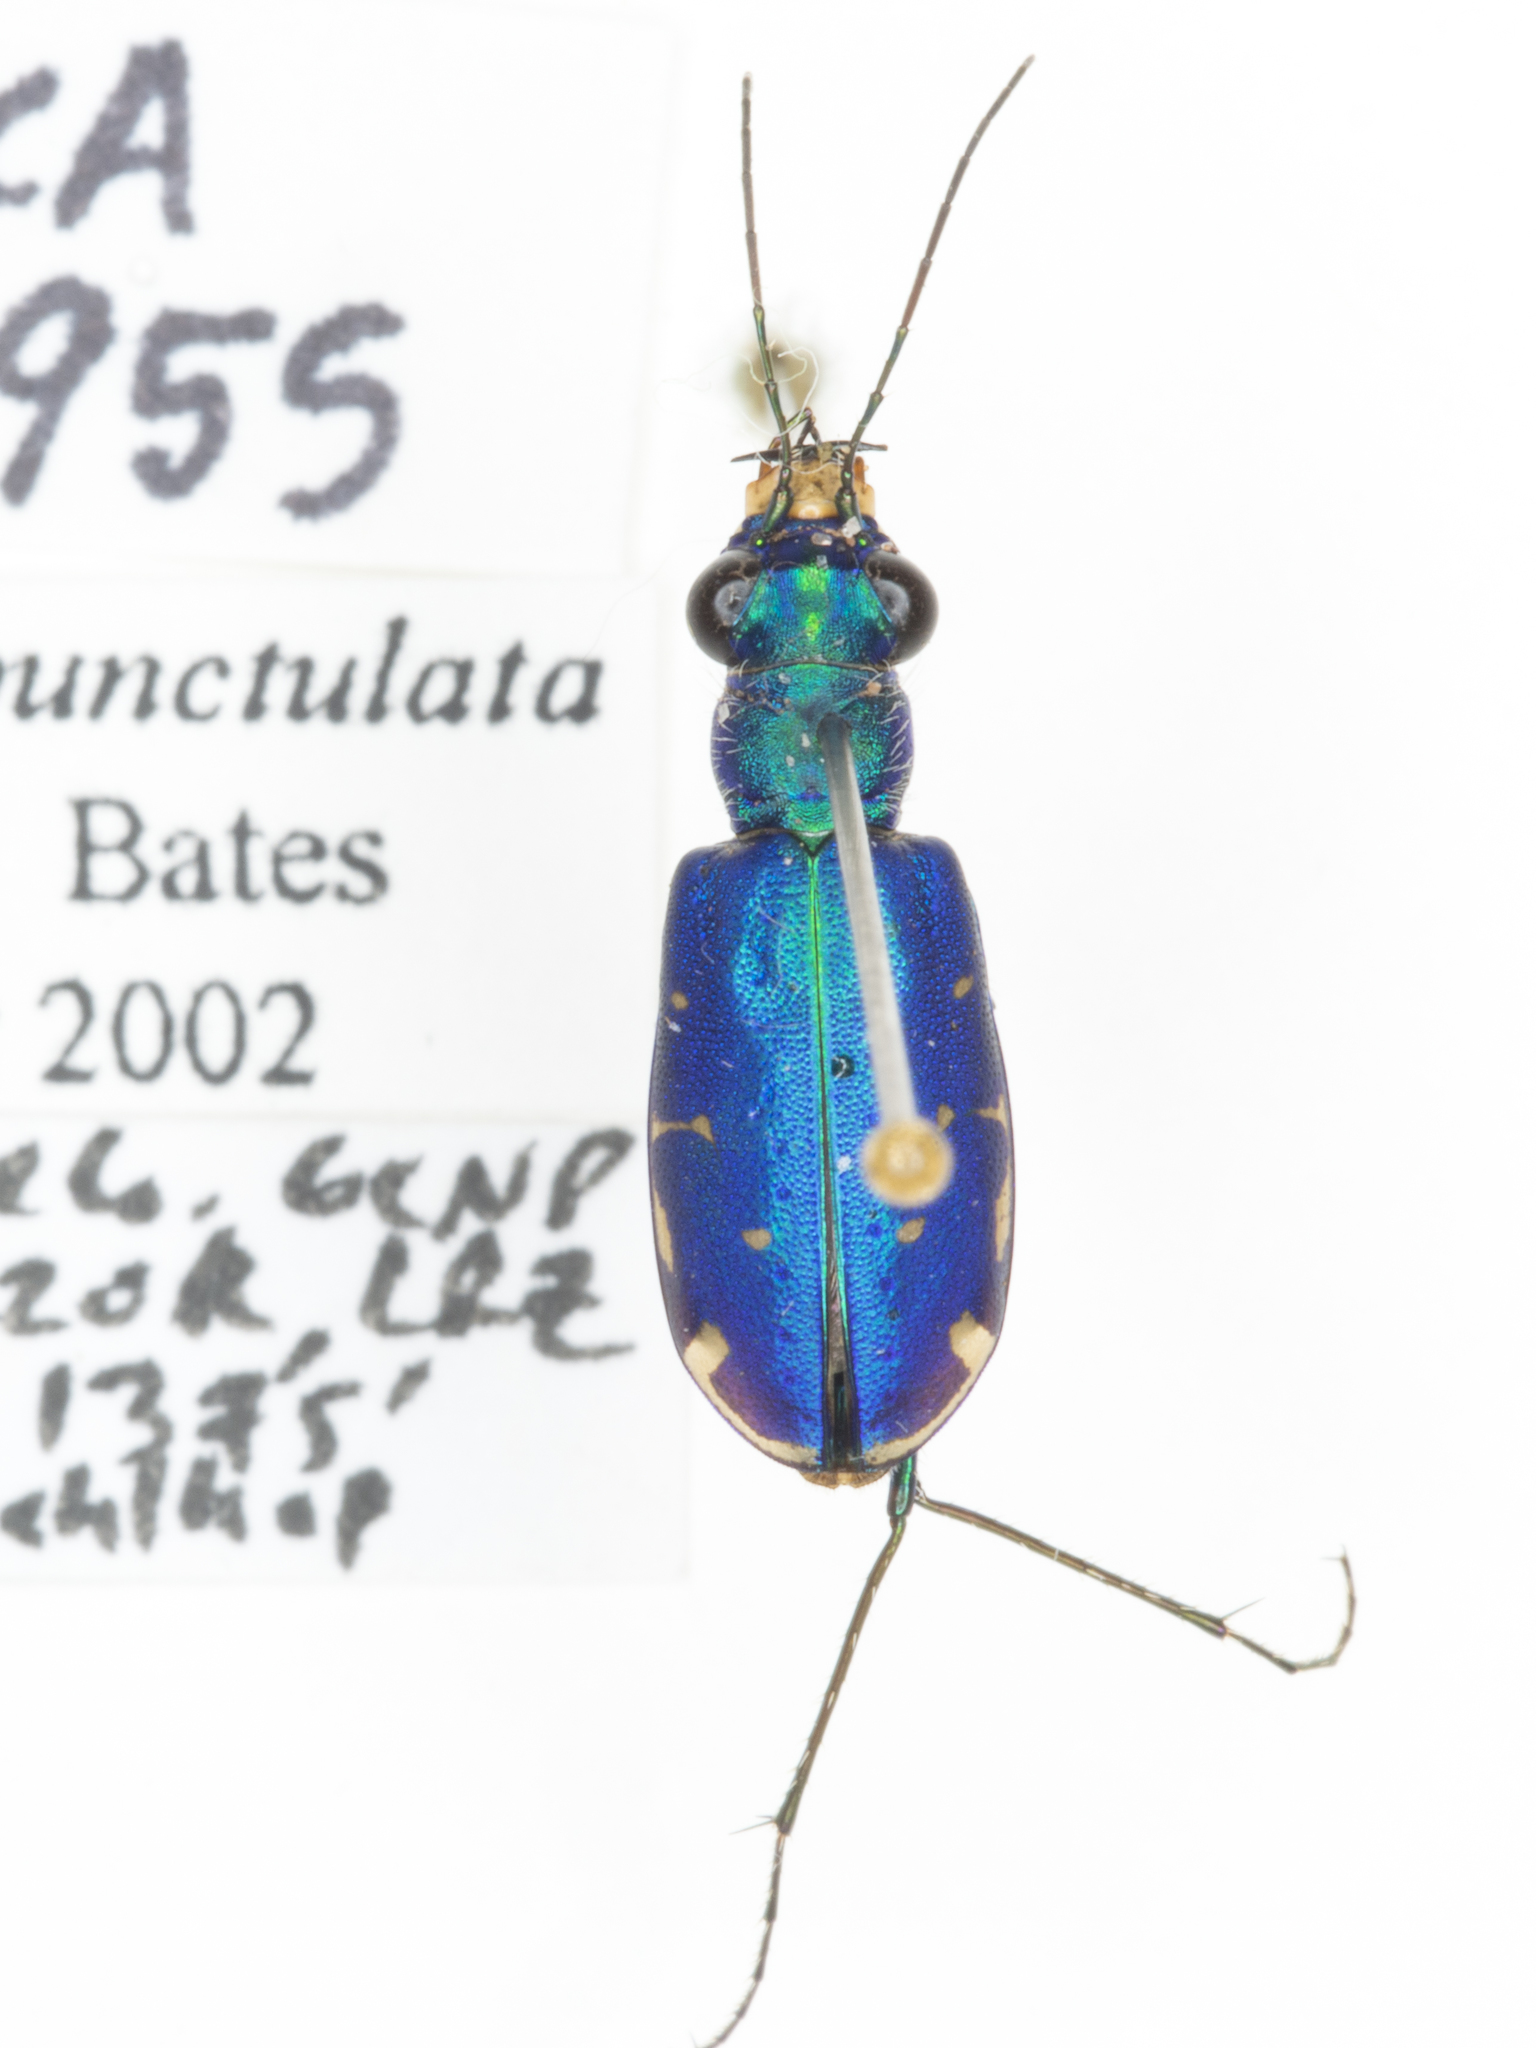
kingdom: Animalia
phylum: Arthropoda
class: Insecta
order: Coleoptera
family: Carabidae
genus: Cicindela
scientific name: Cicindela punctulata
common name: Punctured tiger beetle
